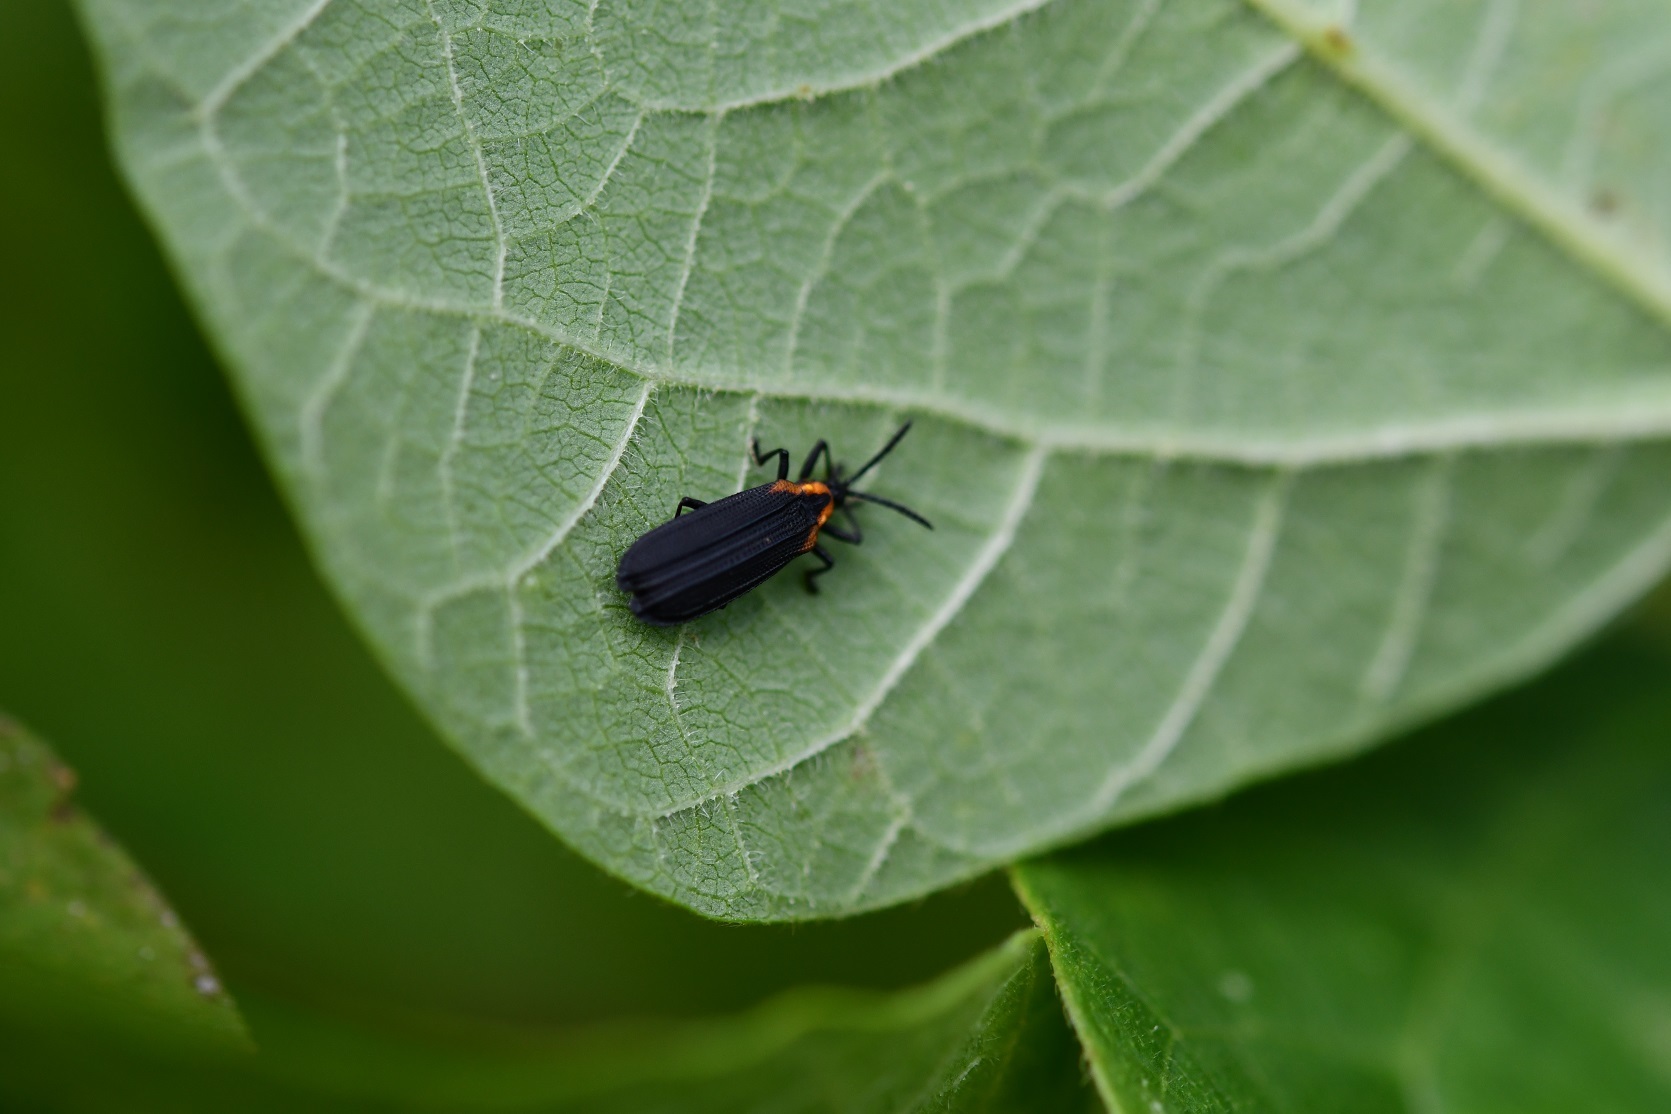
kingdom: Animalia
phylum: Arthropoda
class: Insecta
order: Coleoptera
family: Chrysomelidae
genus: Xenochalepus
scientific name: Xenochalepus maculicollis
